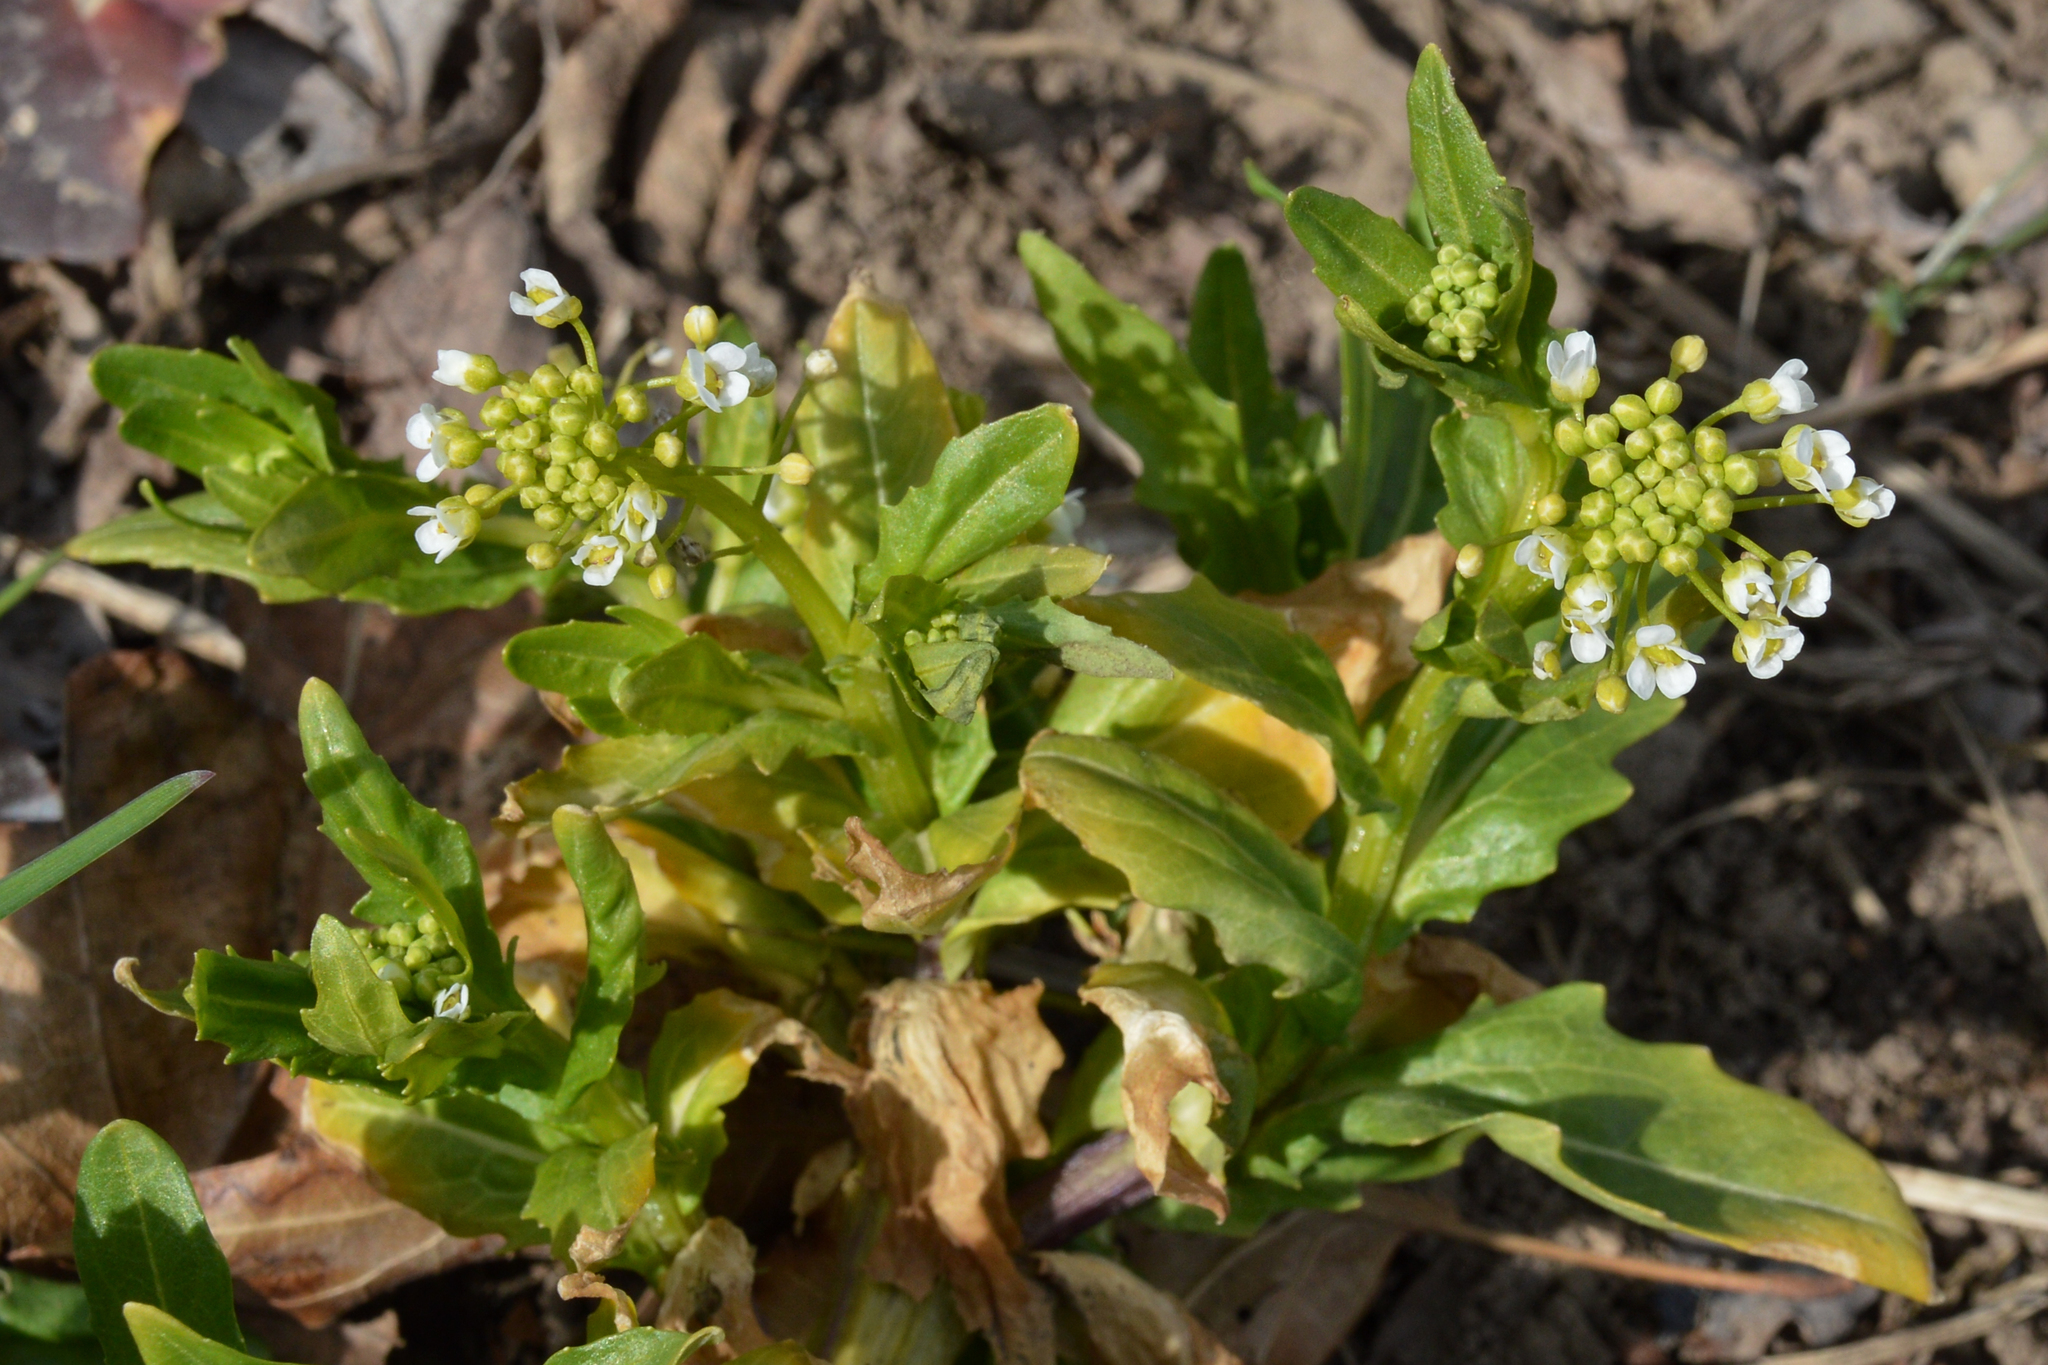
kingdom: Plantae
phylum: Tracheophyta
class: Magnoliopsida
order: Brassicales
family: Brassicaceae
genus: Thlaspi
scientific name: Thlaspi arvense
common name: Field pennycress
